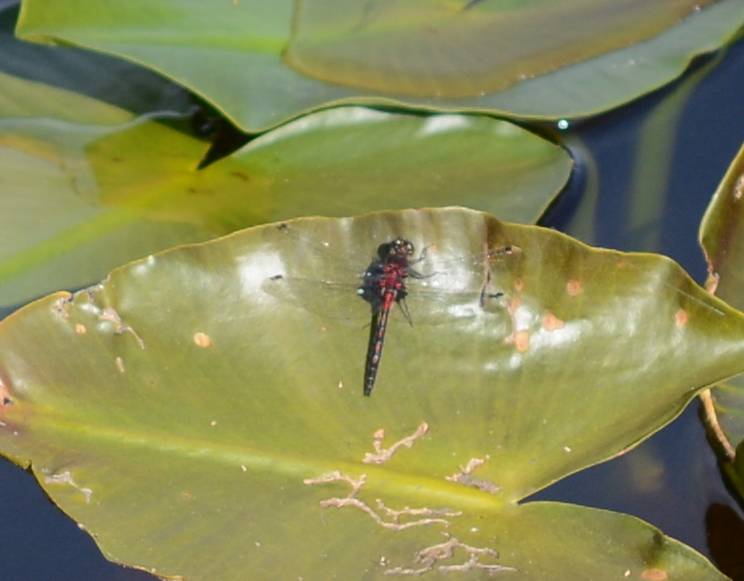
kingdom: Animalia
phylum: Arthropoda
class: Insecta
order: Odonata
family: Libellulidae
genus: Leucorrhinia
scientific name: Leucorrhinia hudsonica
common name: Hudsonian whiteface
